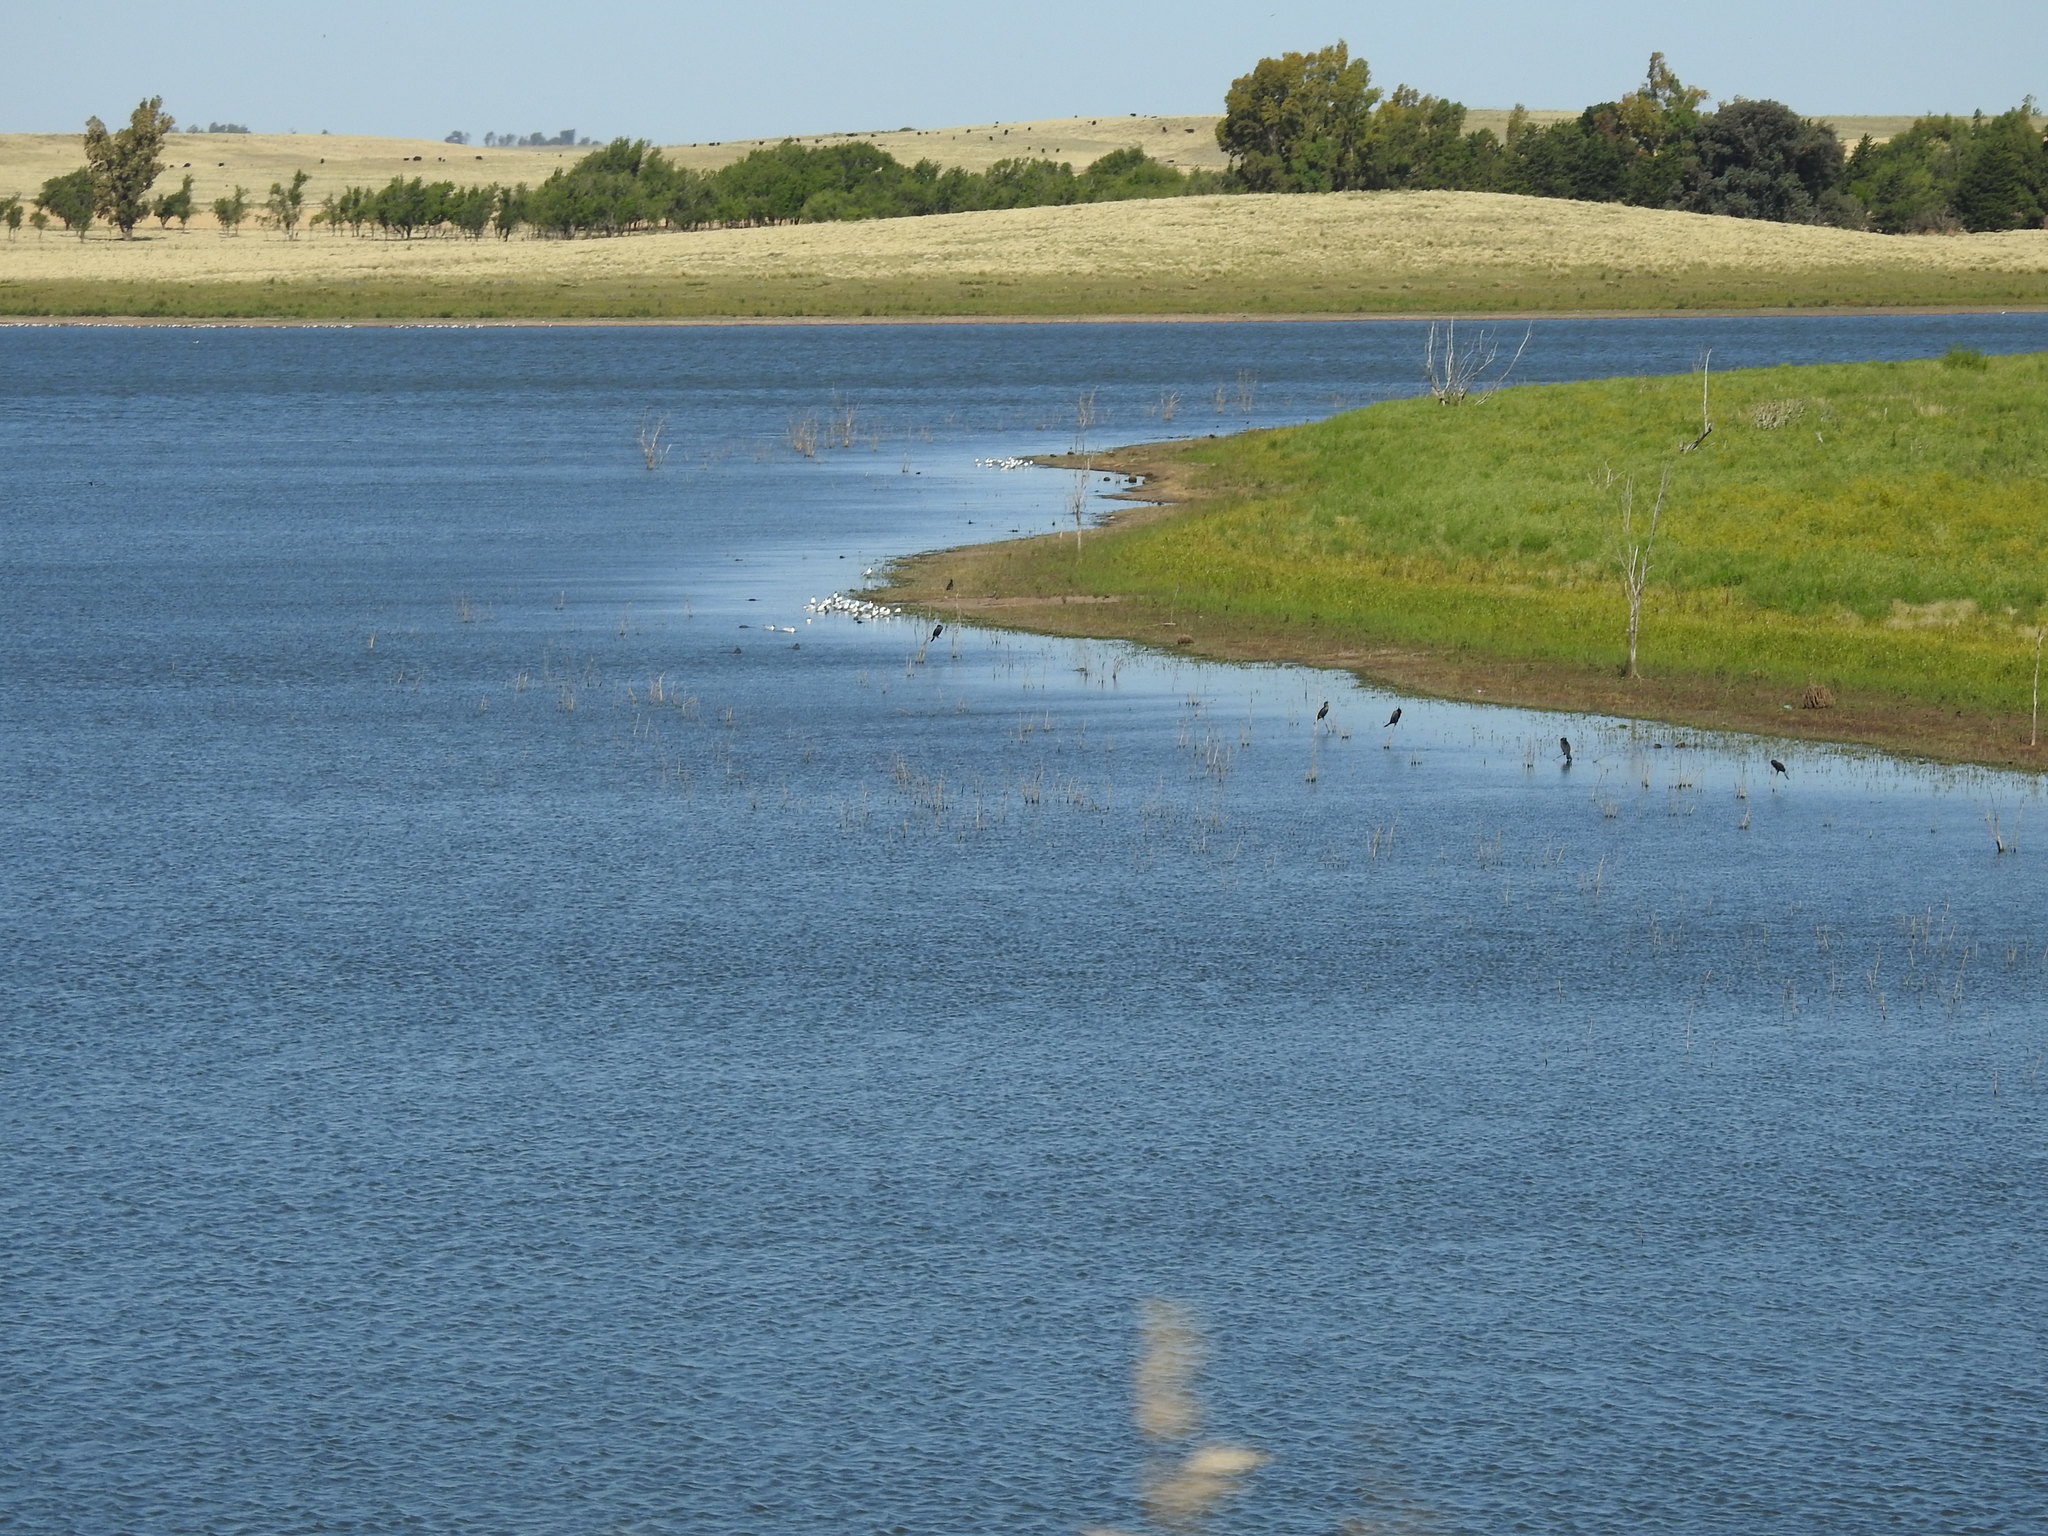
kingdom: Animalia
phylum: Chordata
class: Aves
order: Charadriiformes
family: Laridae
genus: Chroicocephalus
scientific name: Chroicocephalus maculipennis
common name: Brown-hooded gull
